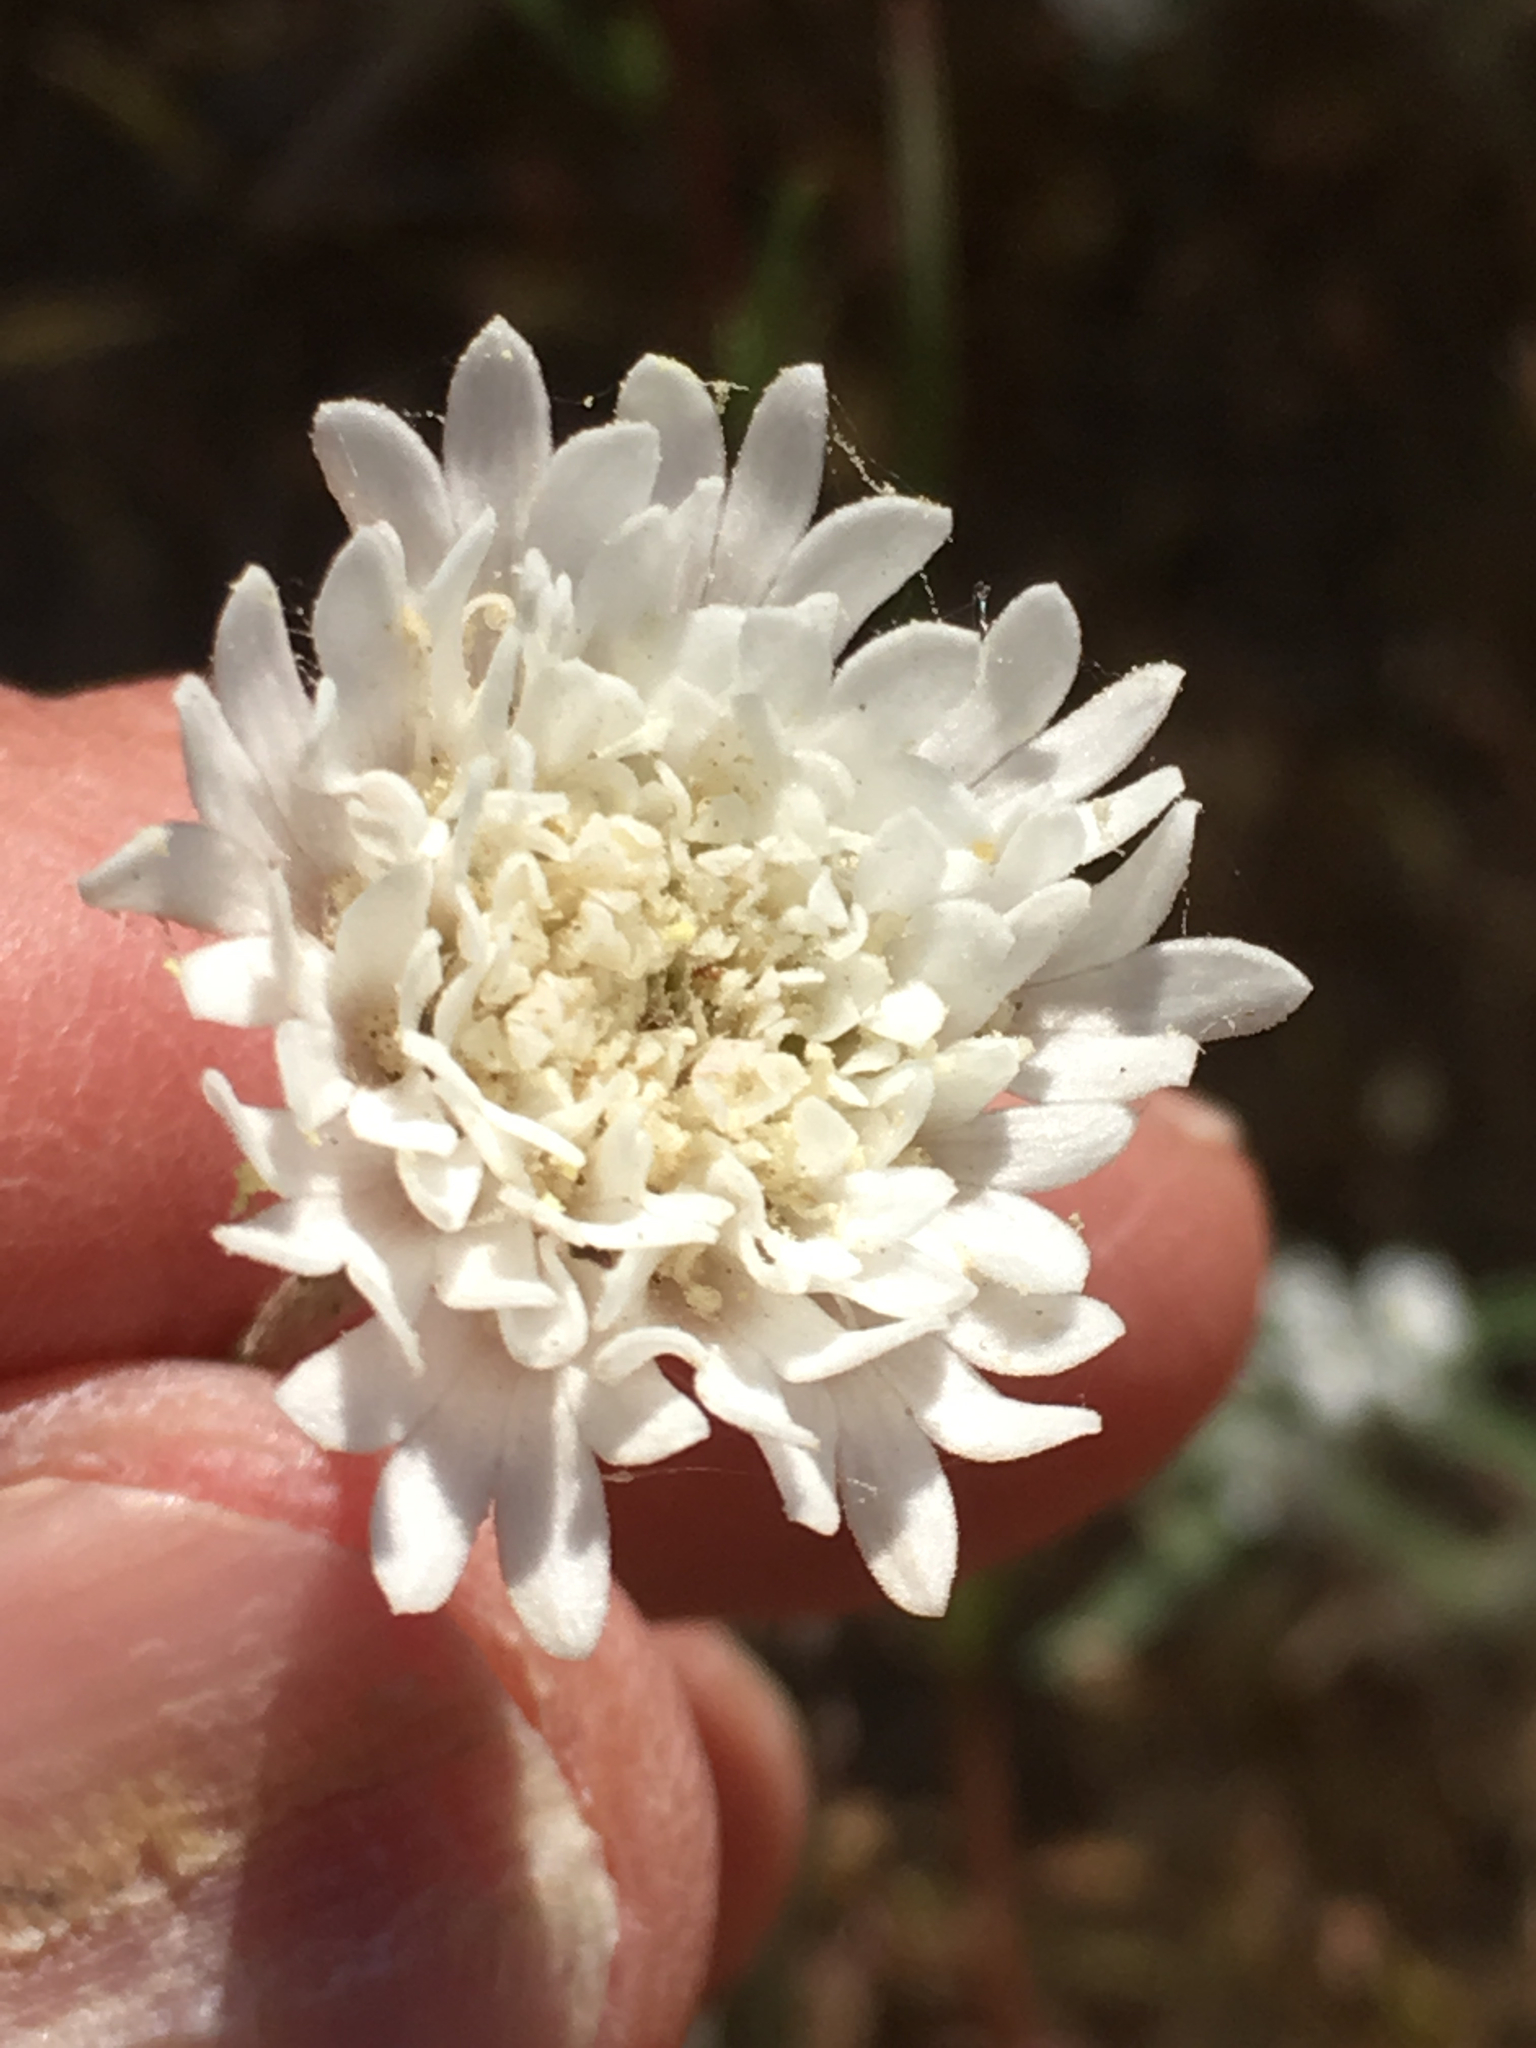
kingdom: Plantae
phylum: Tracheophyta
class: Magnoliopsida
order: Asterales
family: Asteraceae
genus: Chaenactis
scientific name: Chaenactis fremontii
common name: Fremont pincushion
